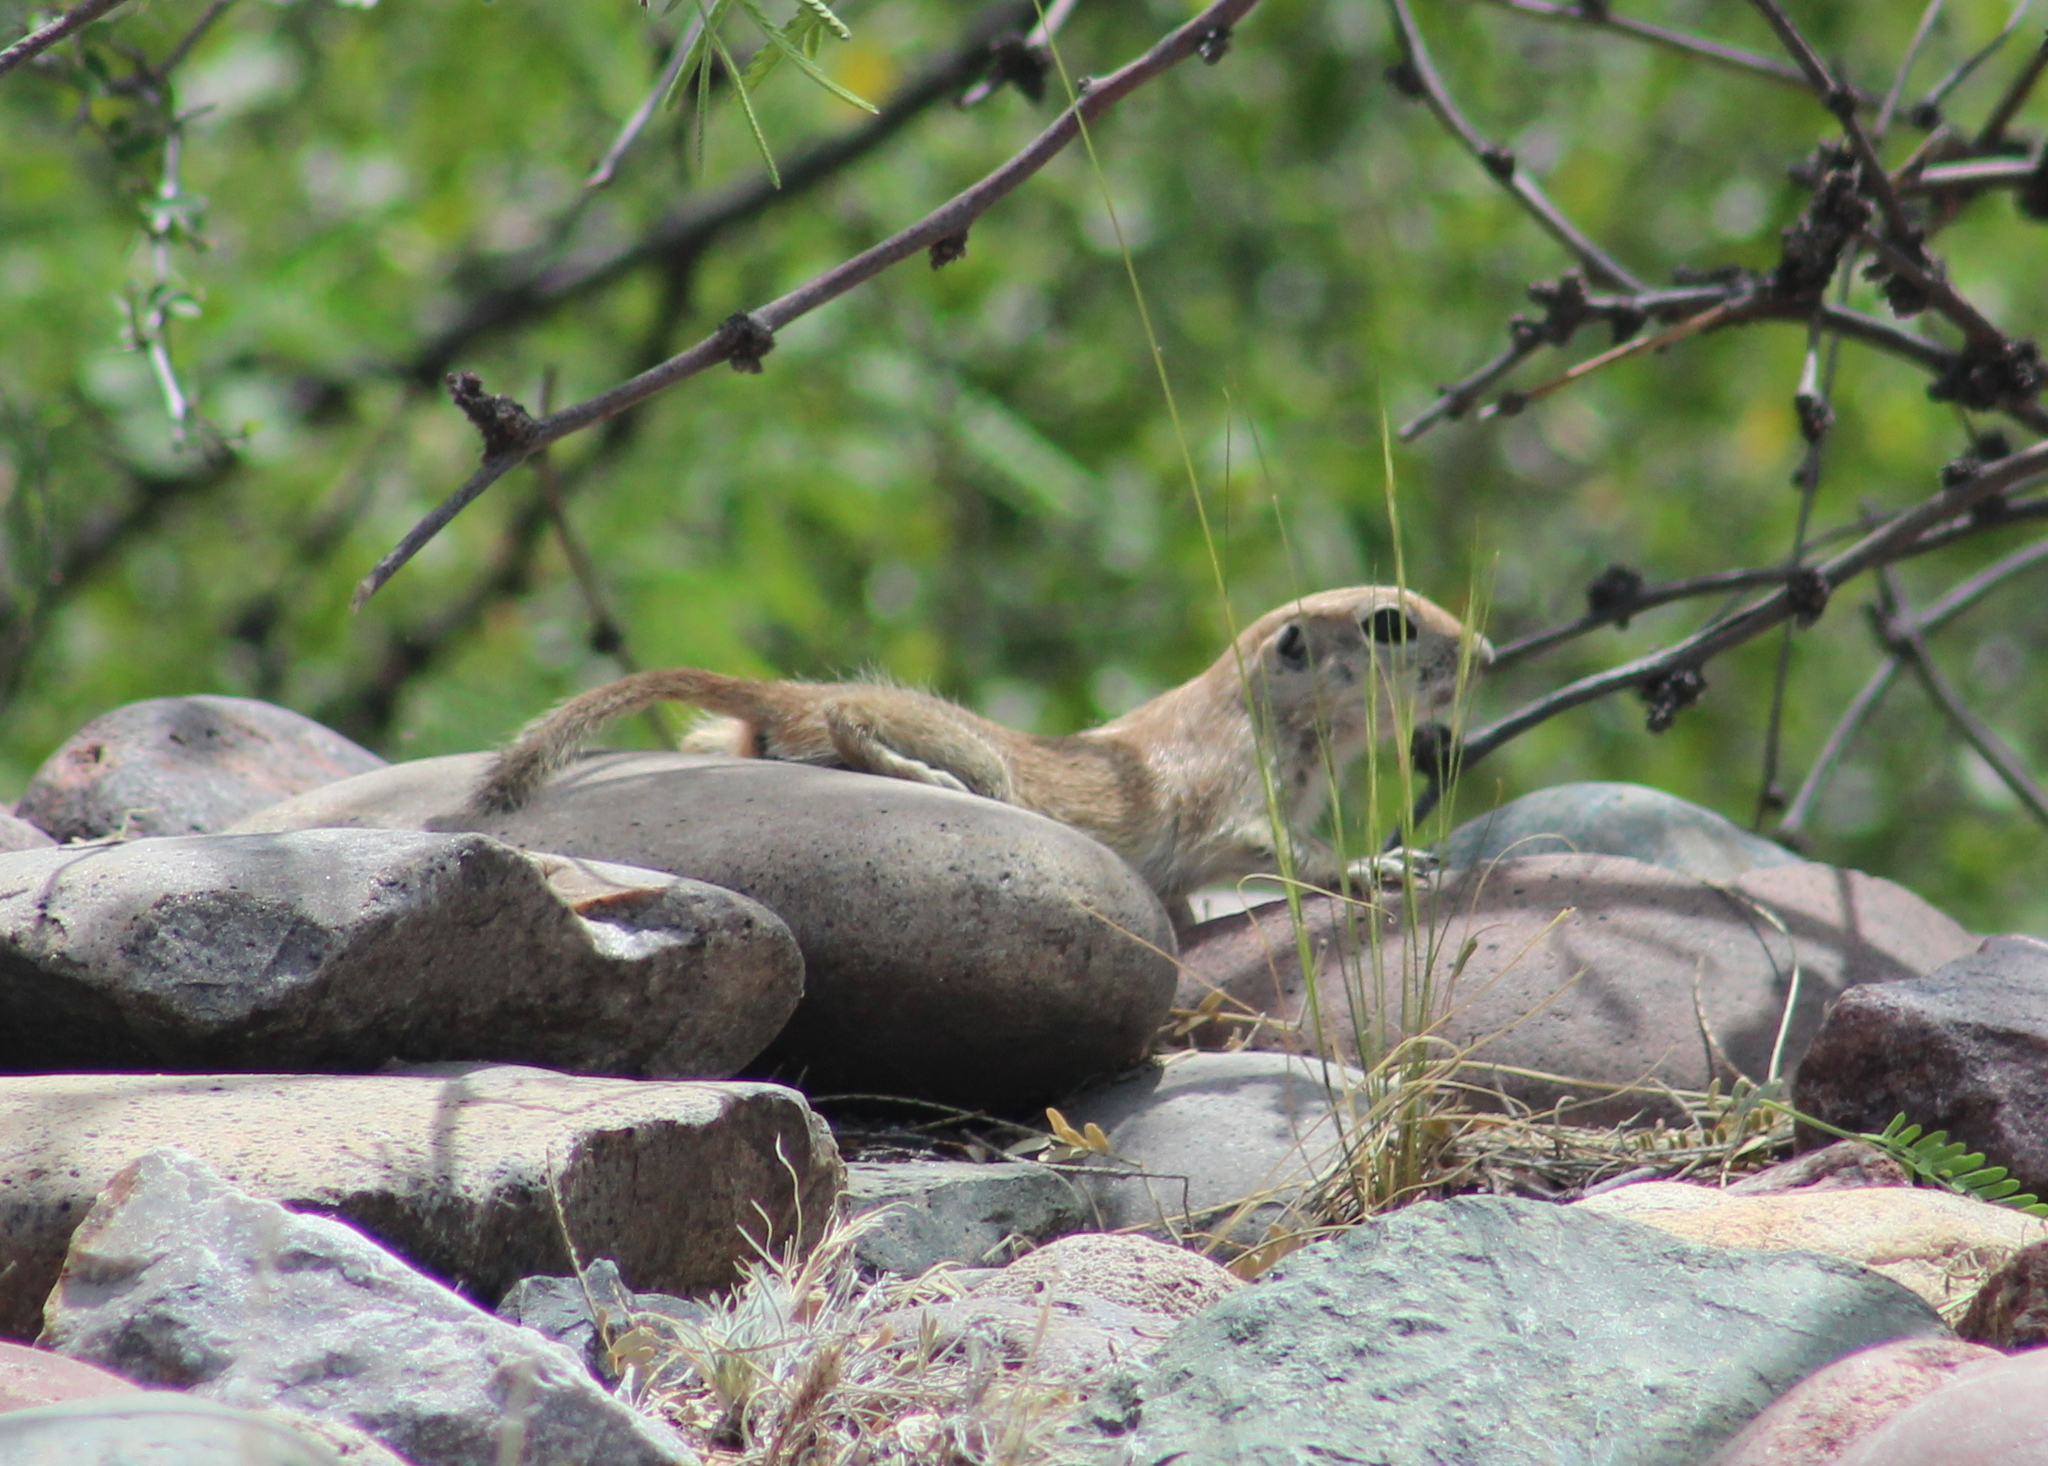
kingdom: Animalia
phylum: Chordata
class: Mammalia
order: Rodentia
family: Sciuridae
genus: Xerospermophilus
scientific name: Xerospermophilus tereticaudus
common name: Round-tailed ground squirrel
